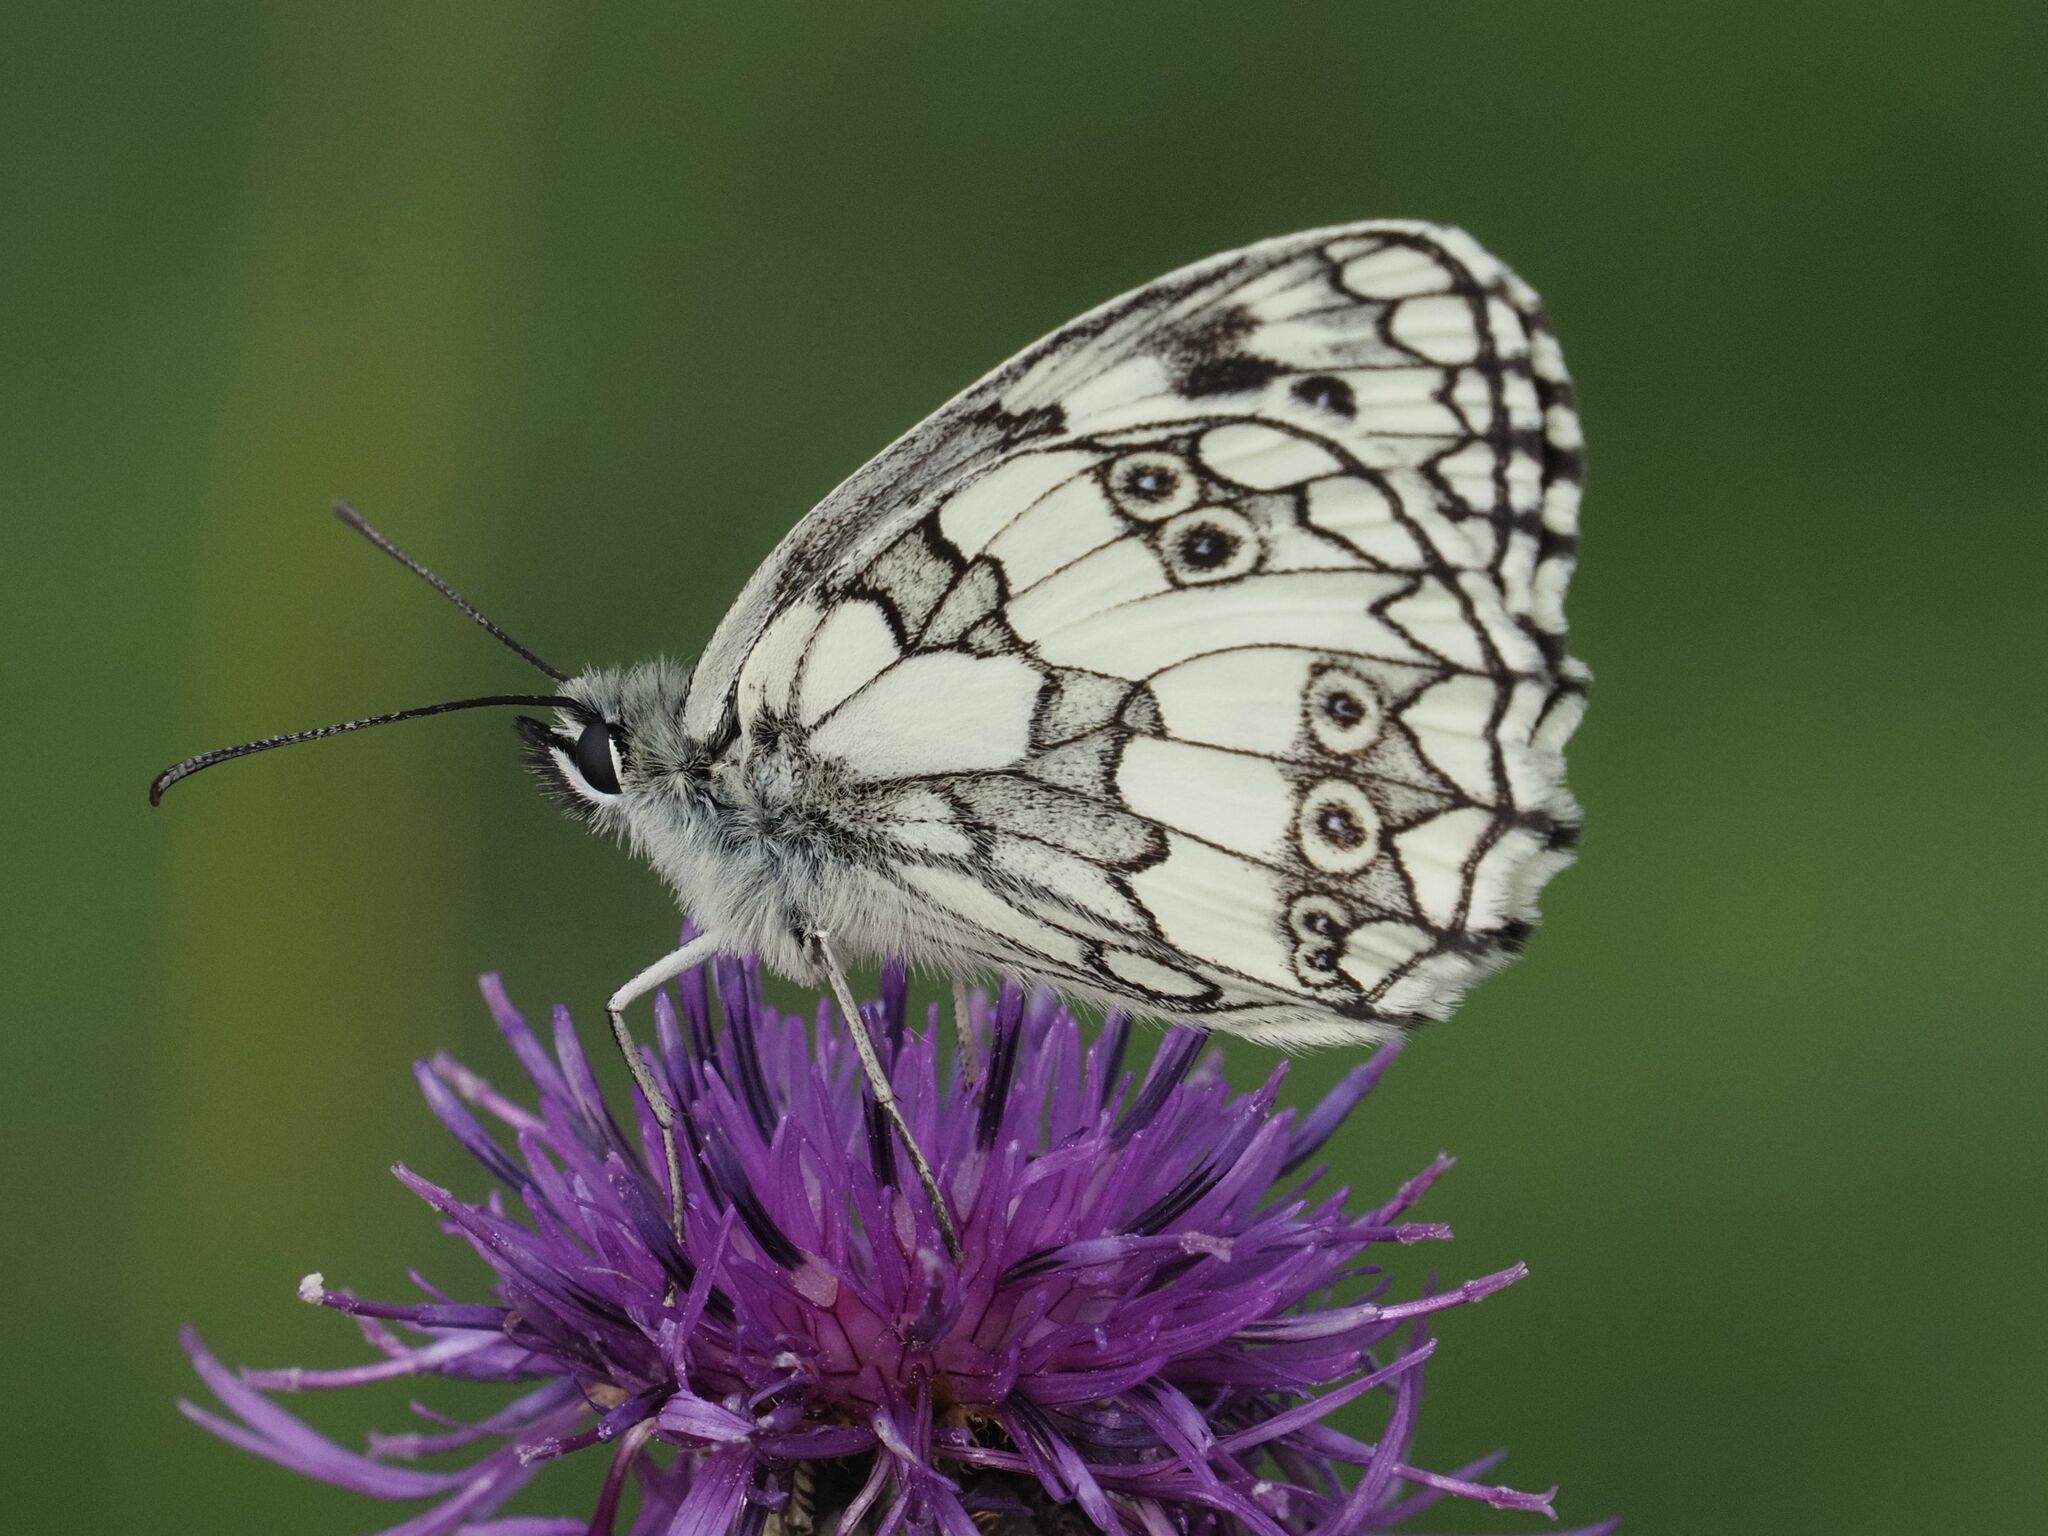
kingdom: Animalia
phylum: Arthropoda
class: Insecta
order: Lepidoptera
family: Nymphalidae
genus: Melanargia
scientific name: Melanargia galathea
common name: Marbled white
